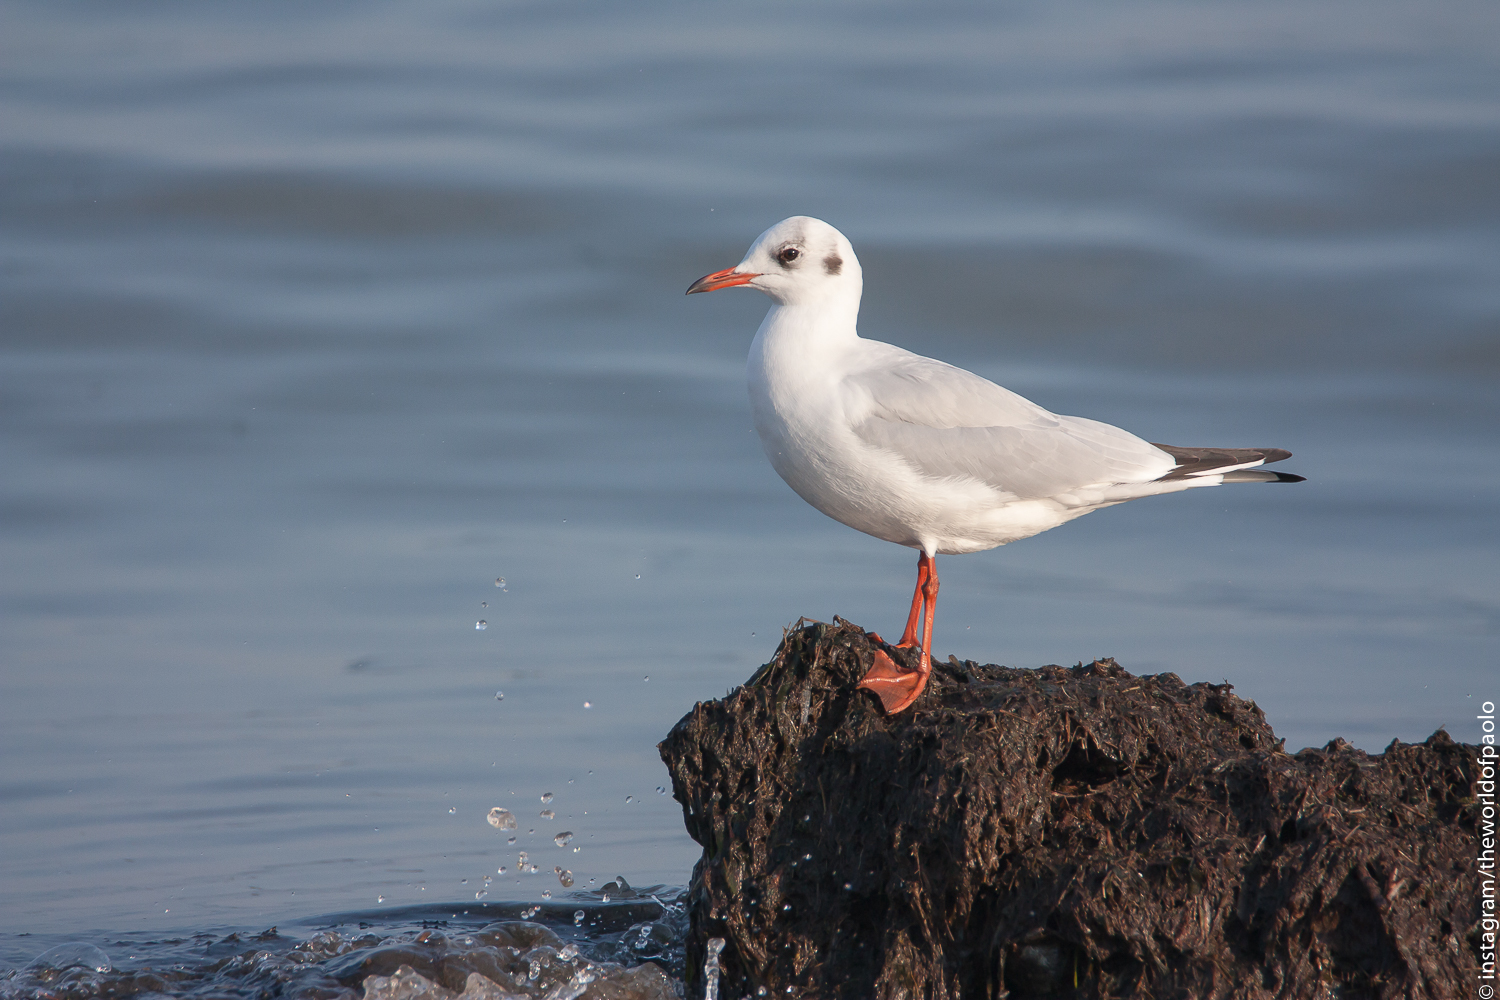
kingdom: Animalia
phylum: Chordata
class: Aves
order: Charadriiformes
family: Laridae
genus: Chroicocephalus
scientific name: Chroicocephalus ridibundus
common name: Black-headed gull
